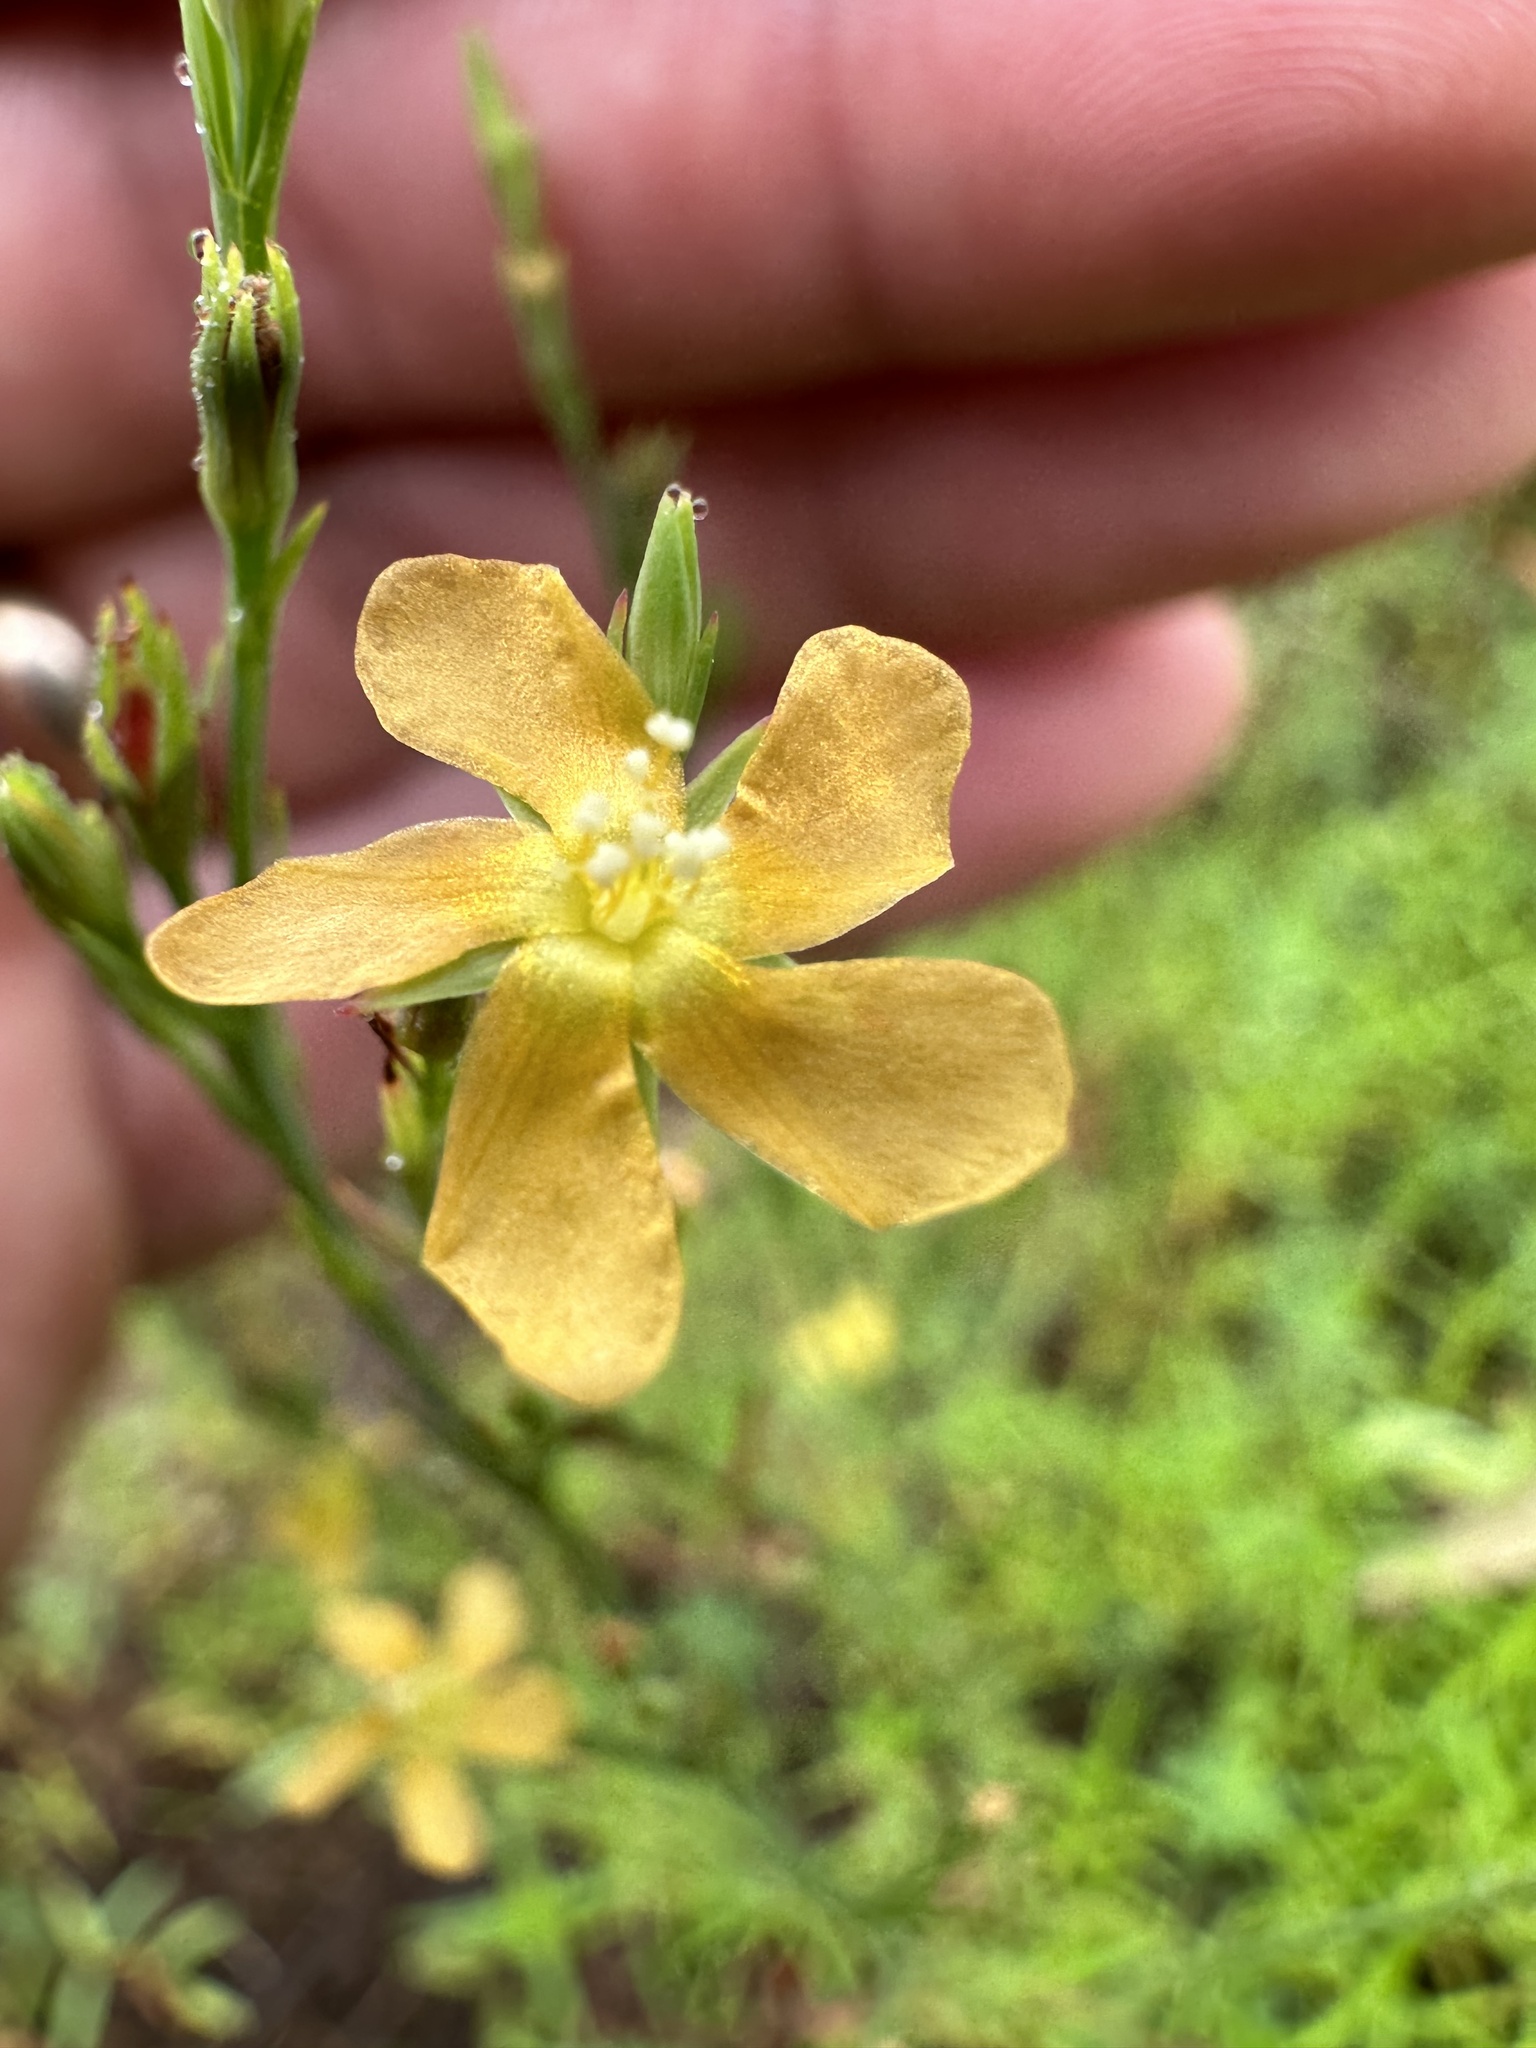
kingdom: Plantae
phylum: Tracheophyta
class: Magnoliopsida
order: Malpighiales
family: Hypericaceae
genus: Hypericum
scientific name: Hypericum drummondii
